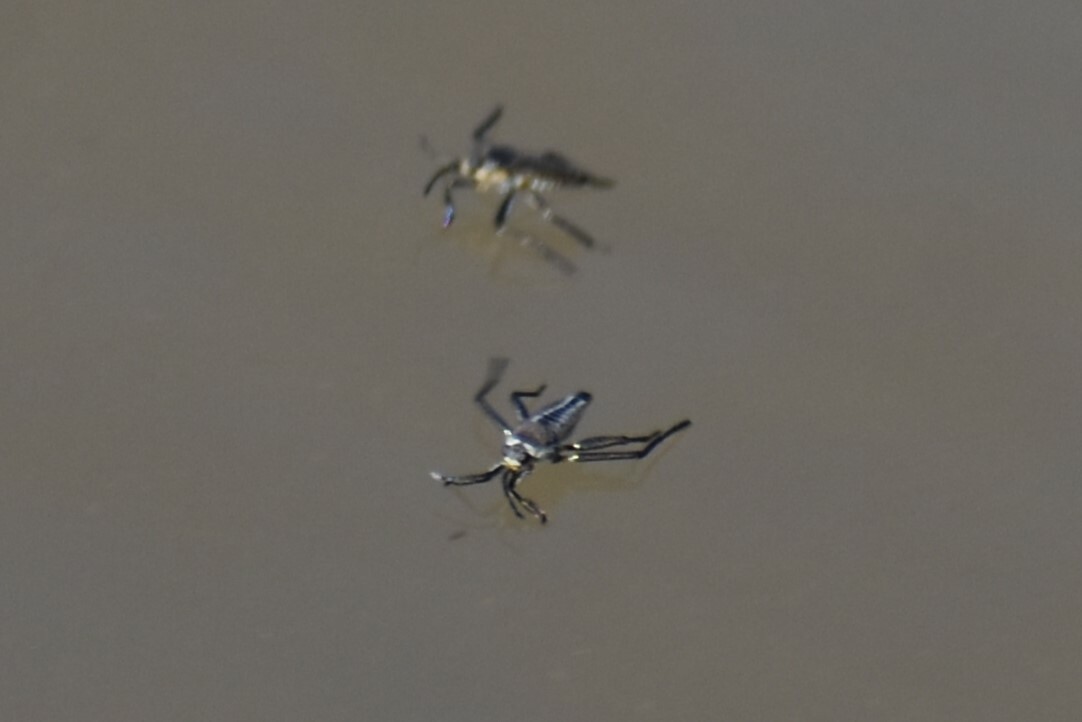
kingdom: Animalia
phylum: Arthropoda
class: Insecta
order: Hemiptera
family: Veliidae
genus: Rhagovelia
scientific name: Rhagovelia
